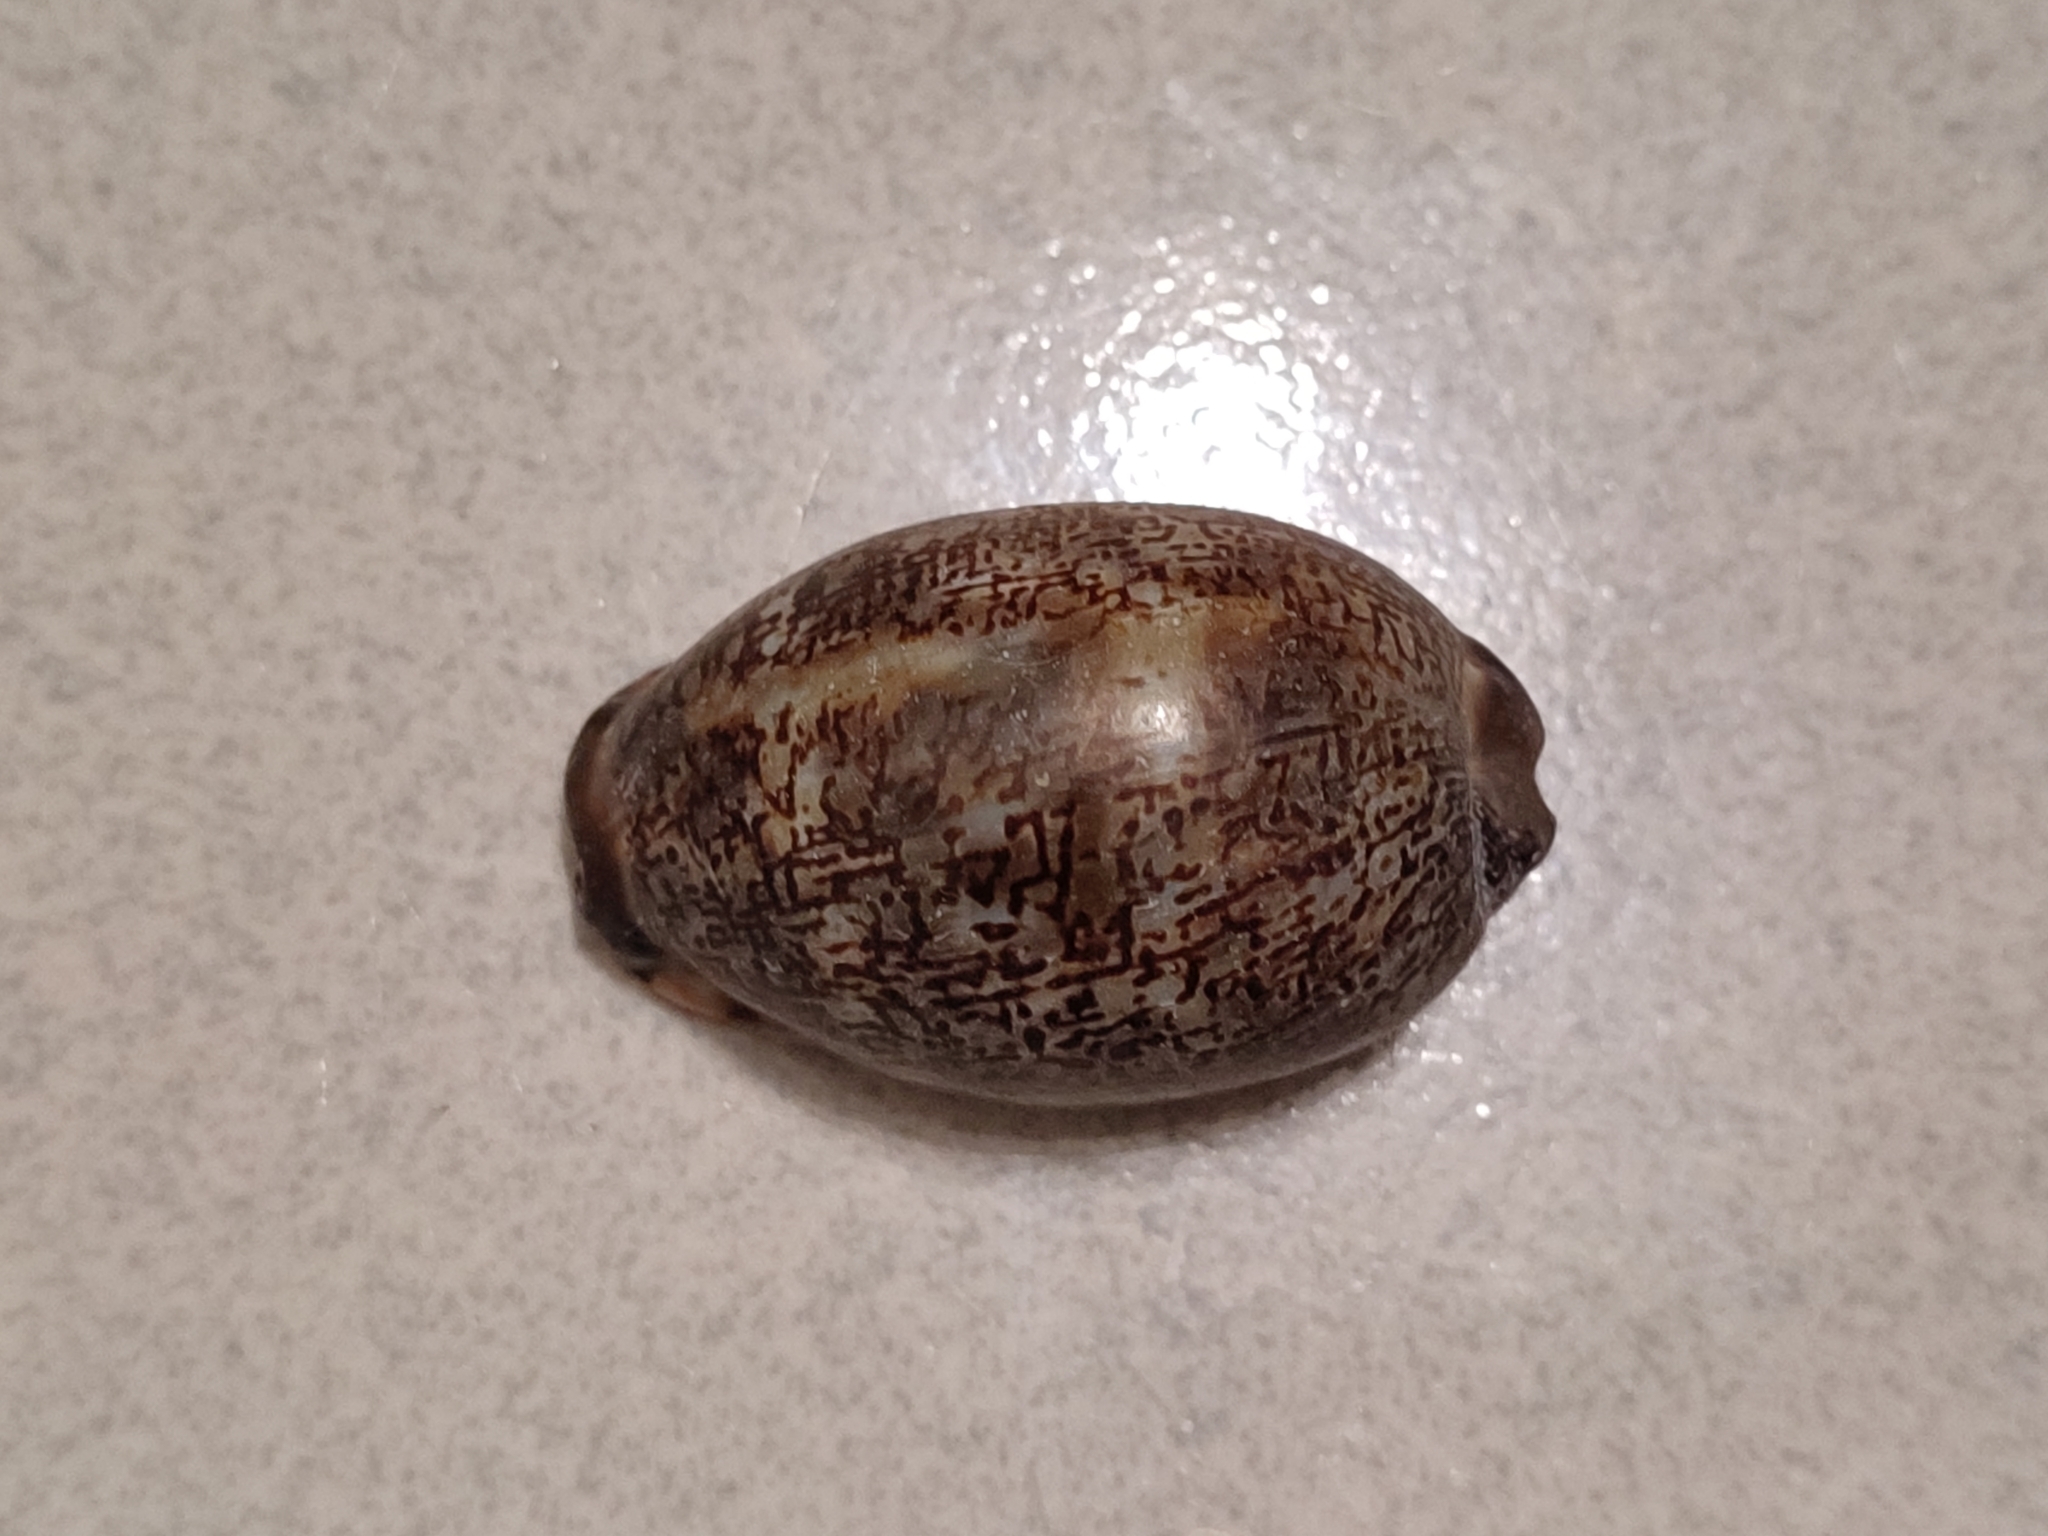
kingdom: Animalia
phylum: Mollusca
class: Gastropoda
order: Littorinimorpha
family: Cypraeidae
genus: Mauritia
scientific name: Mauritia arabica
